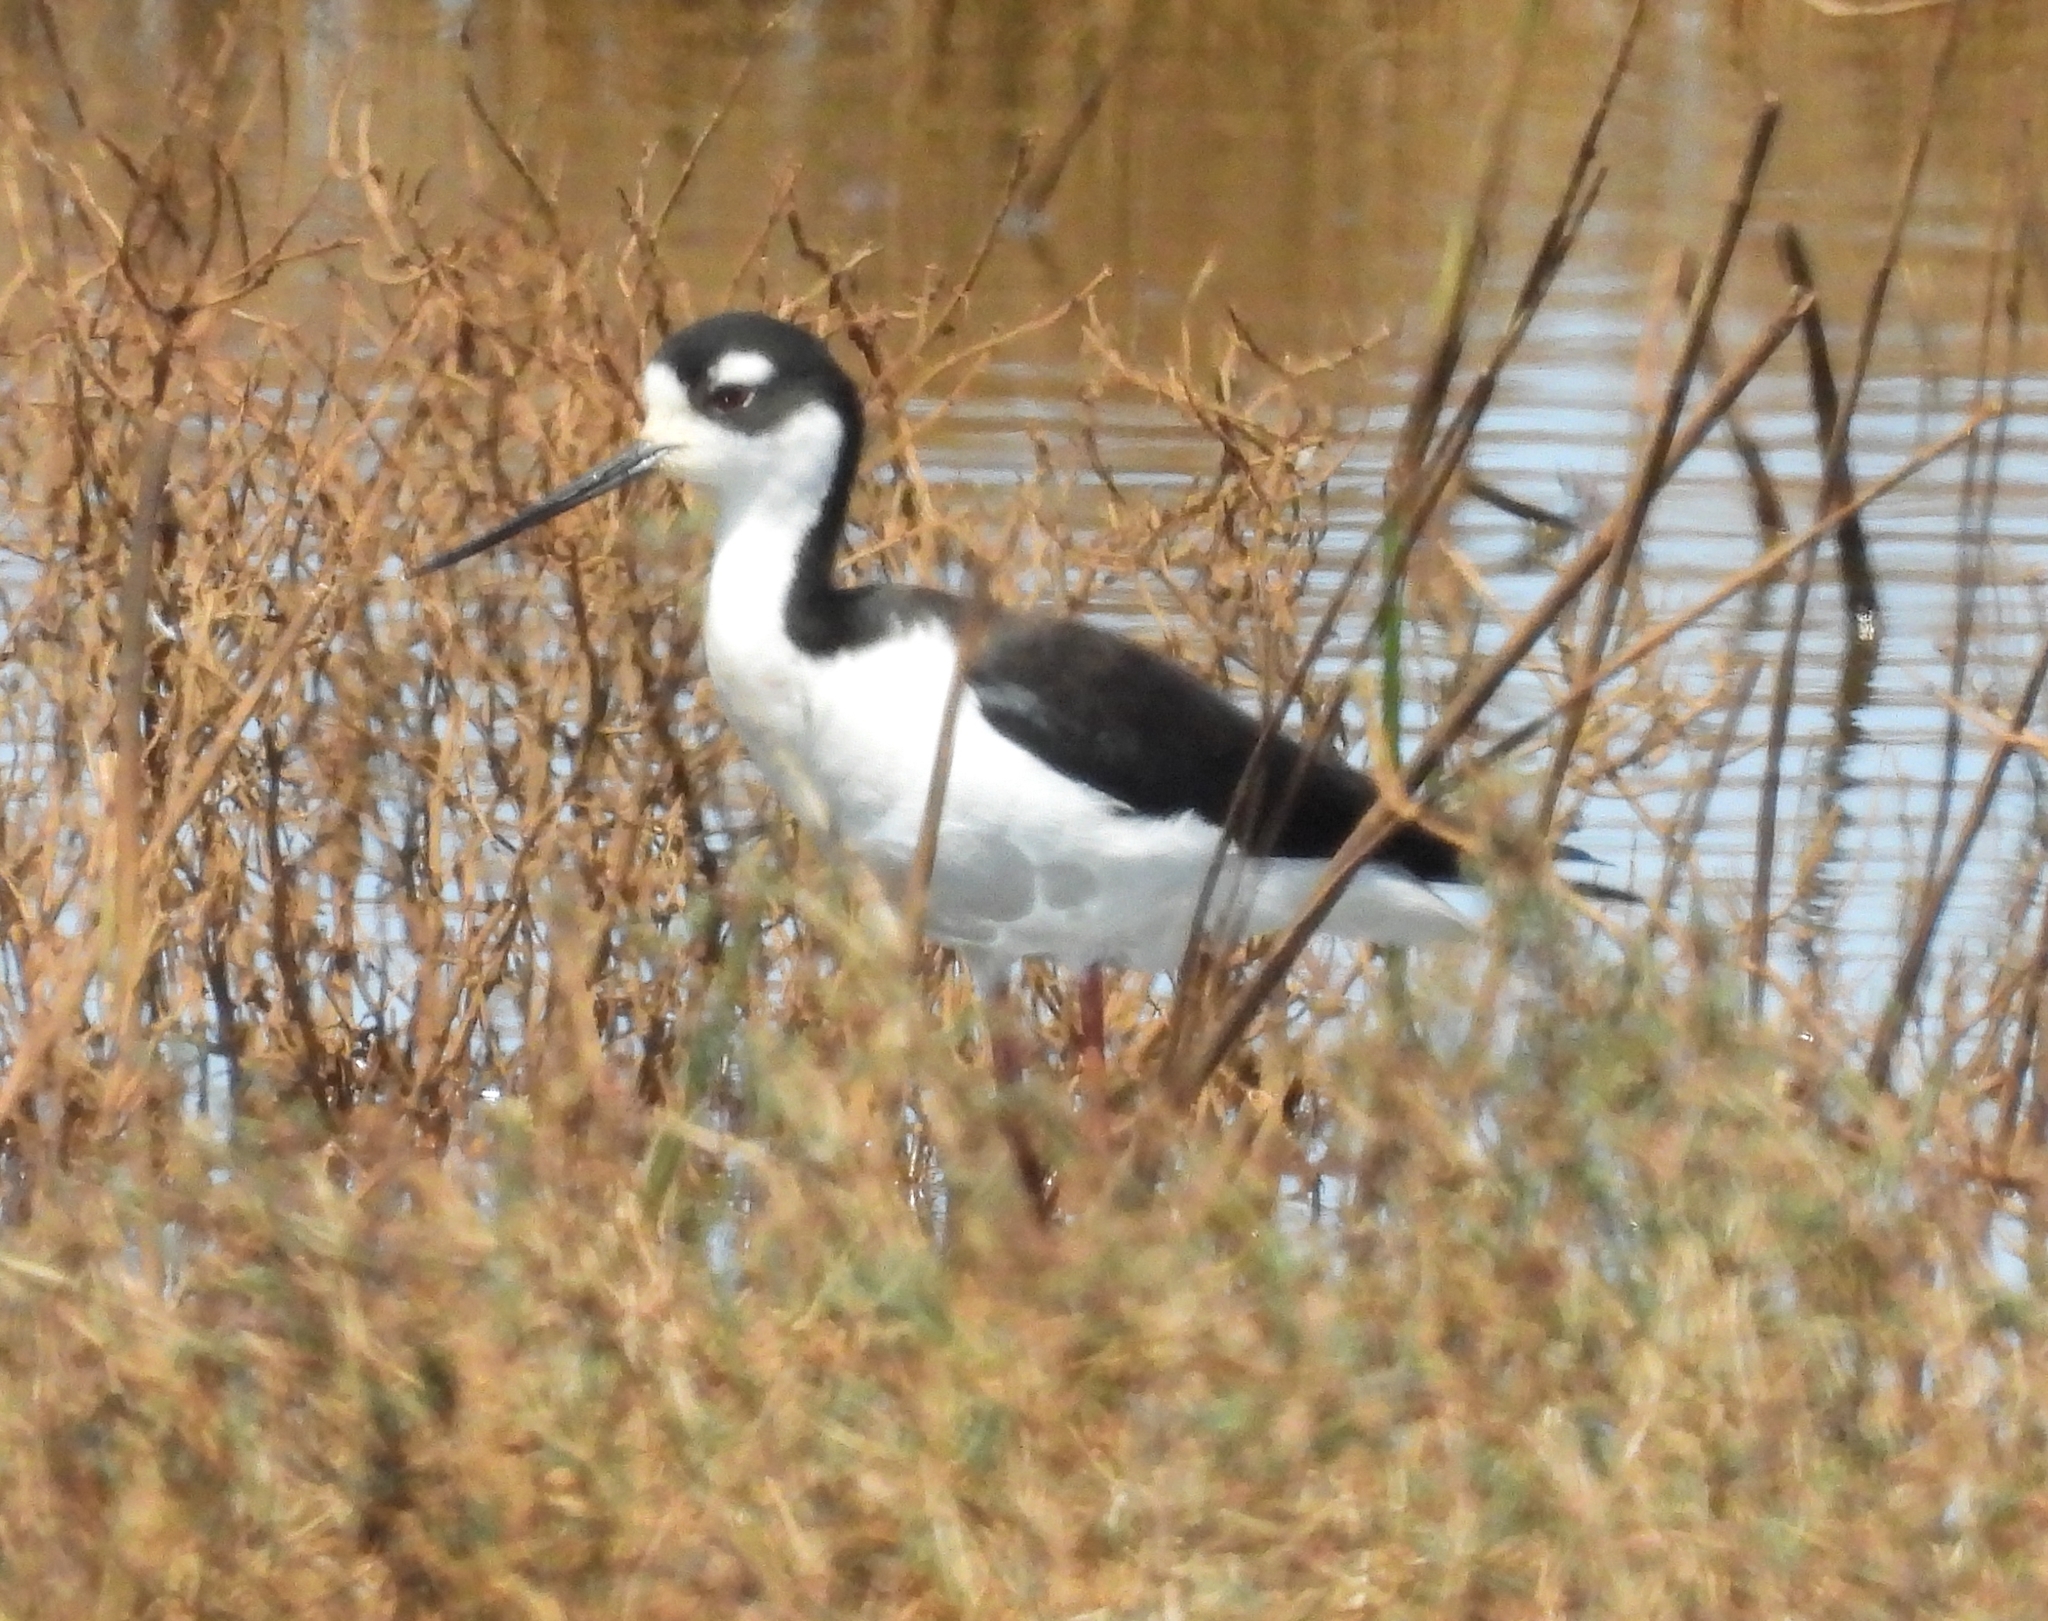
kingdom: Animalia
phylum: Chordata
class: Aves
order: Charadriiformes
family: Recurvirostridae
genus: Himantopus
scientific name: Himantopus mexicanus
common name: Black-necked stilt
